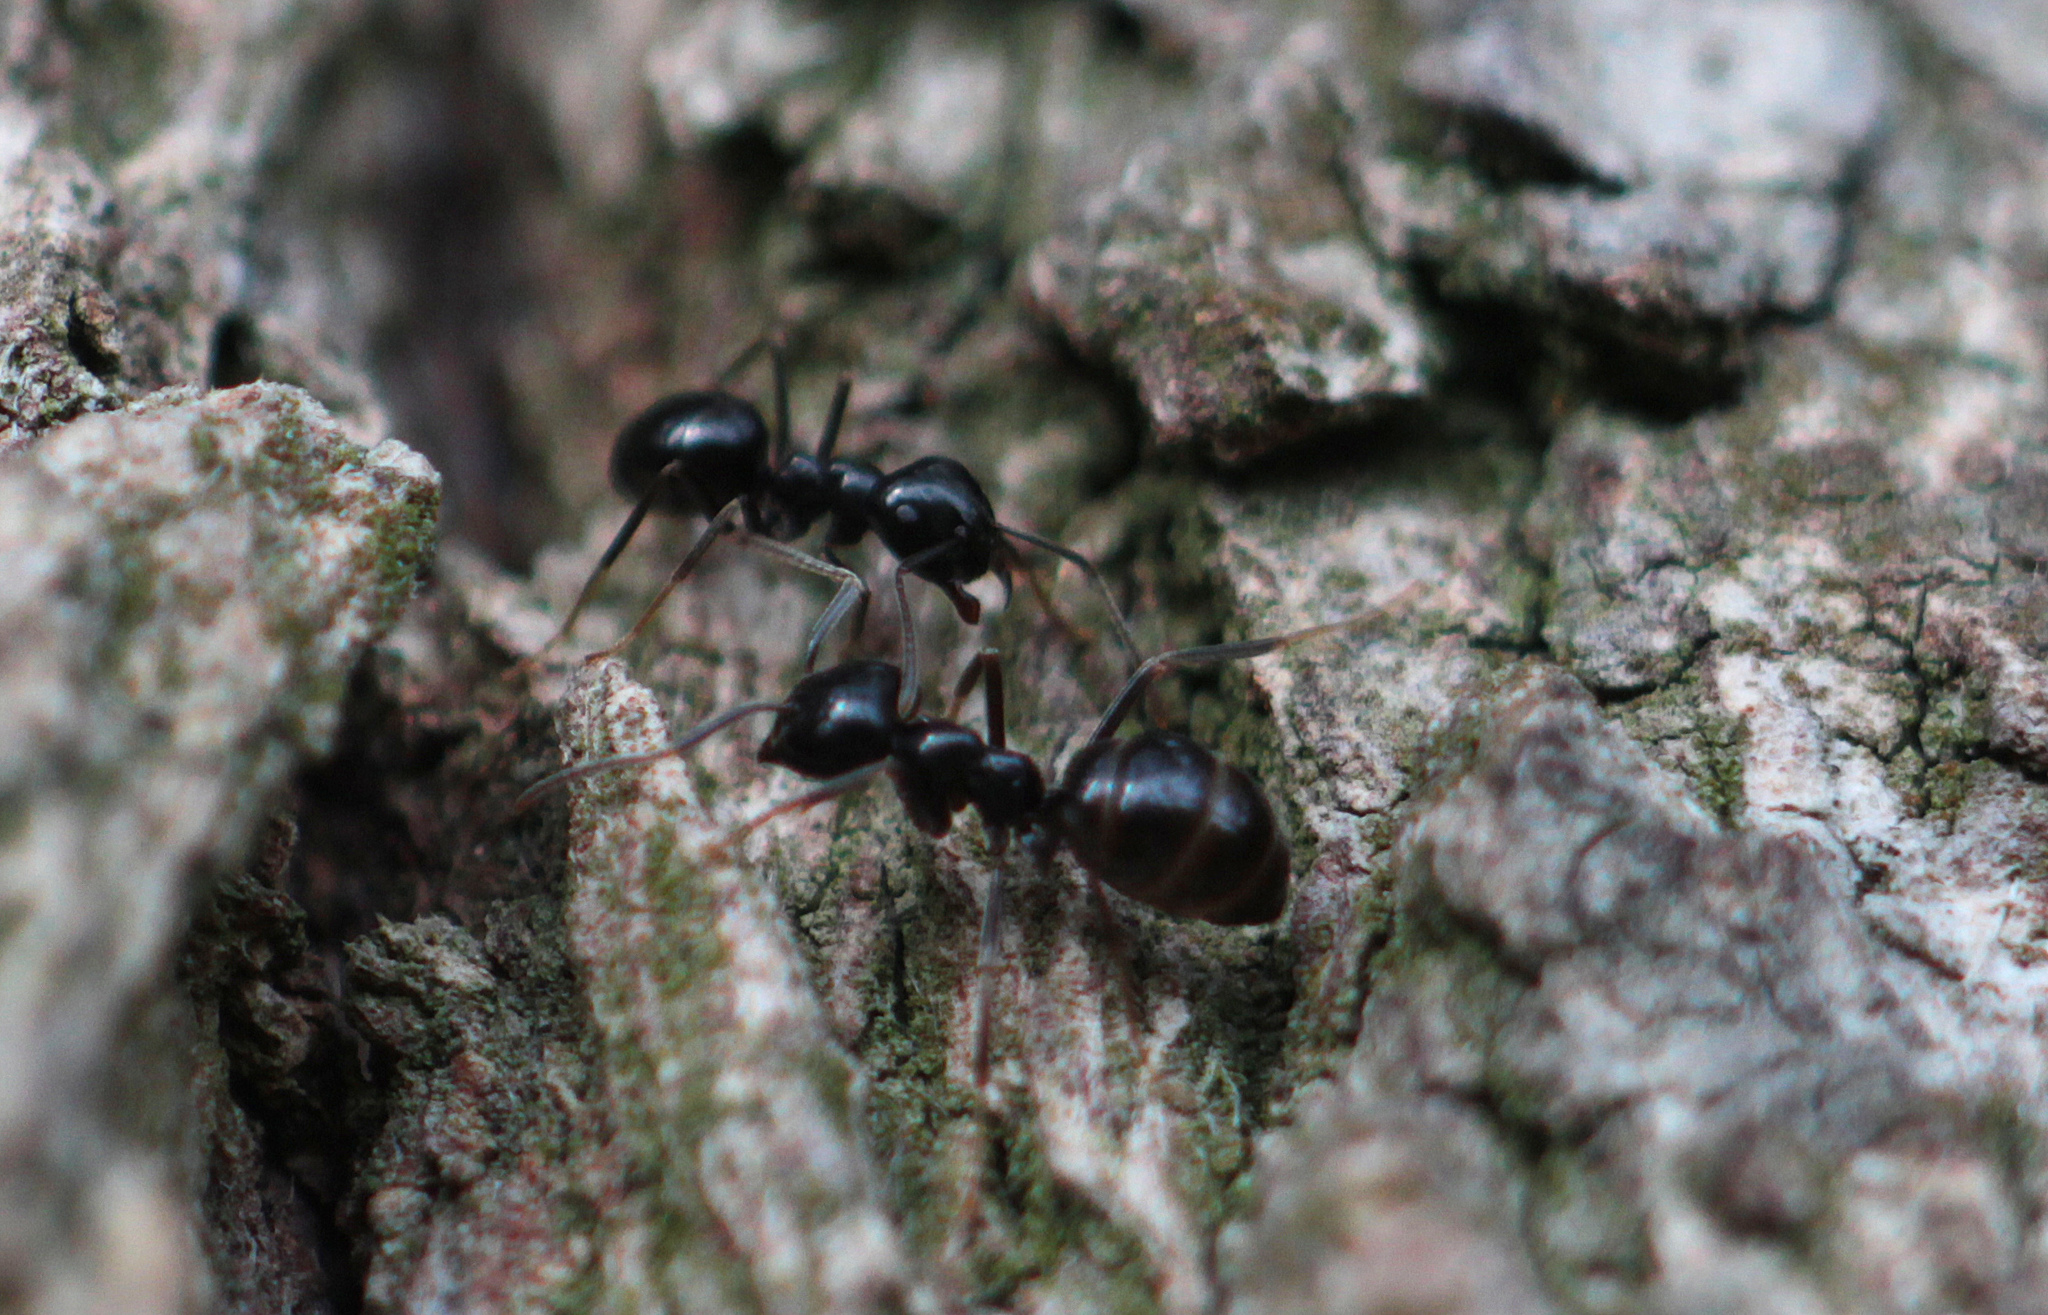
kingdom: Animalia
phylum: Arthropoda
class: Insecta
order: Hymenoptera
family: Formicidae
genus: Lasius
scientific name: Lasius fuliginosus
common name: Jet ant
